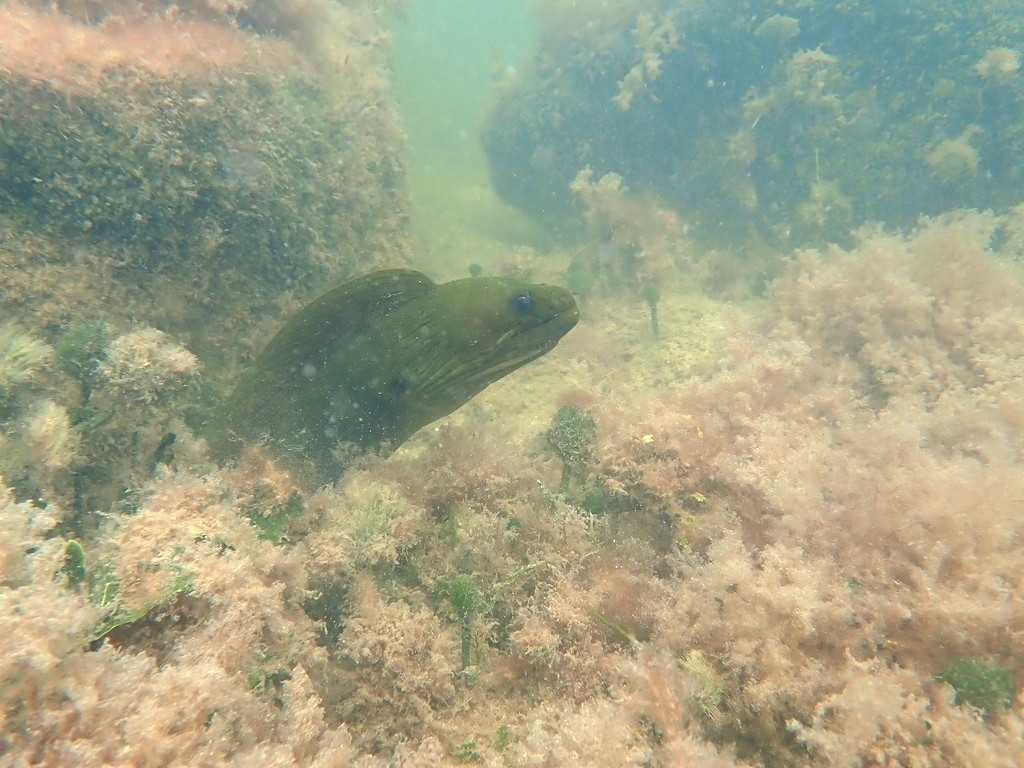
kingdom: Animalia
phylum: Chordata
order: Anguilliformes
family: Muraenidae
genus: Gymnothorax
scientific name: Gymnothorax funebris
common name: Green moray
